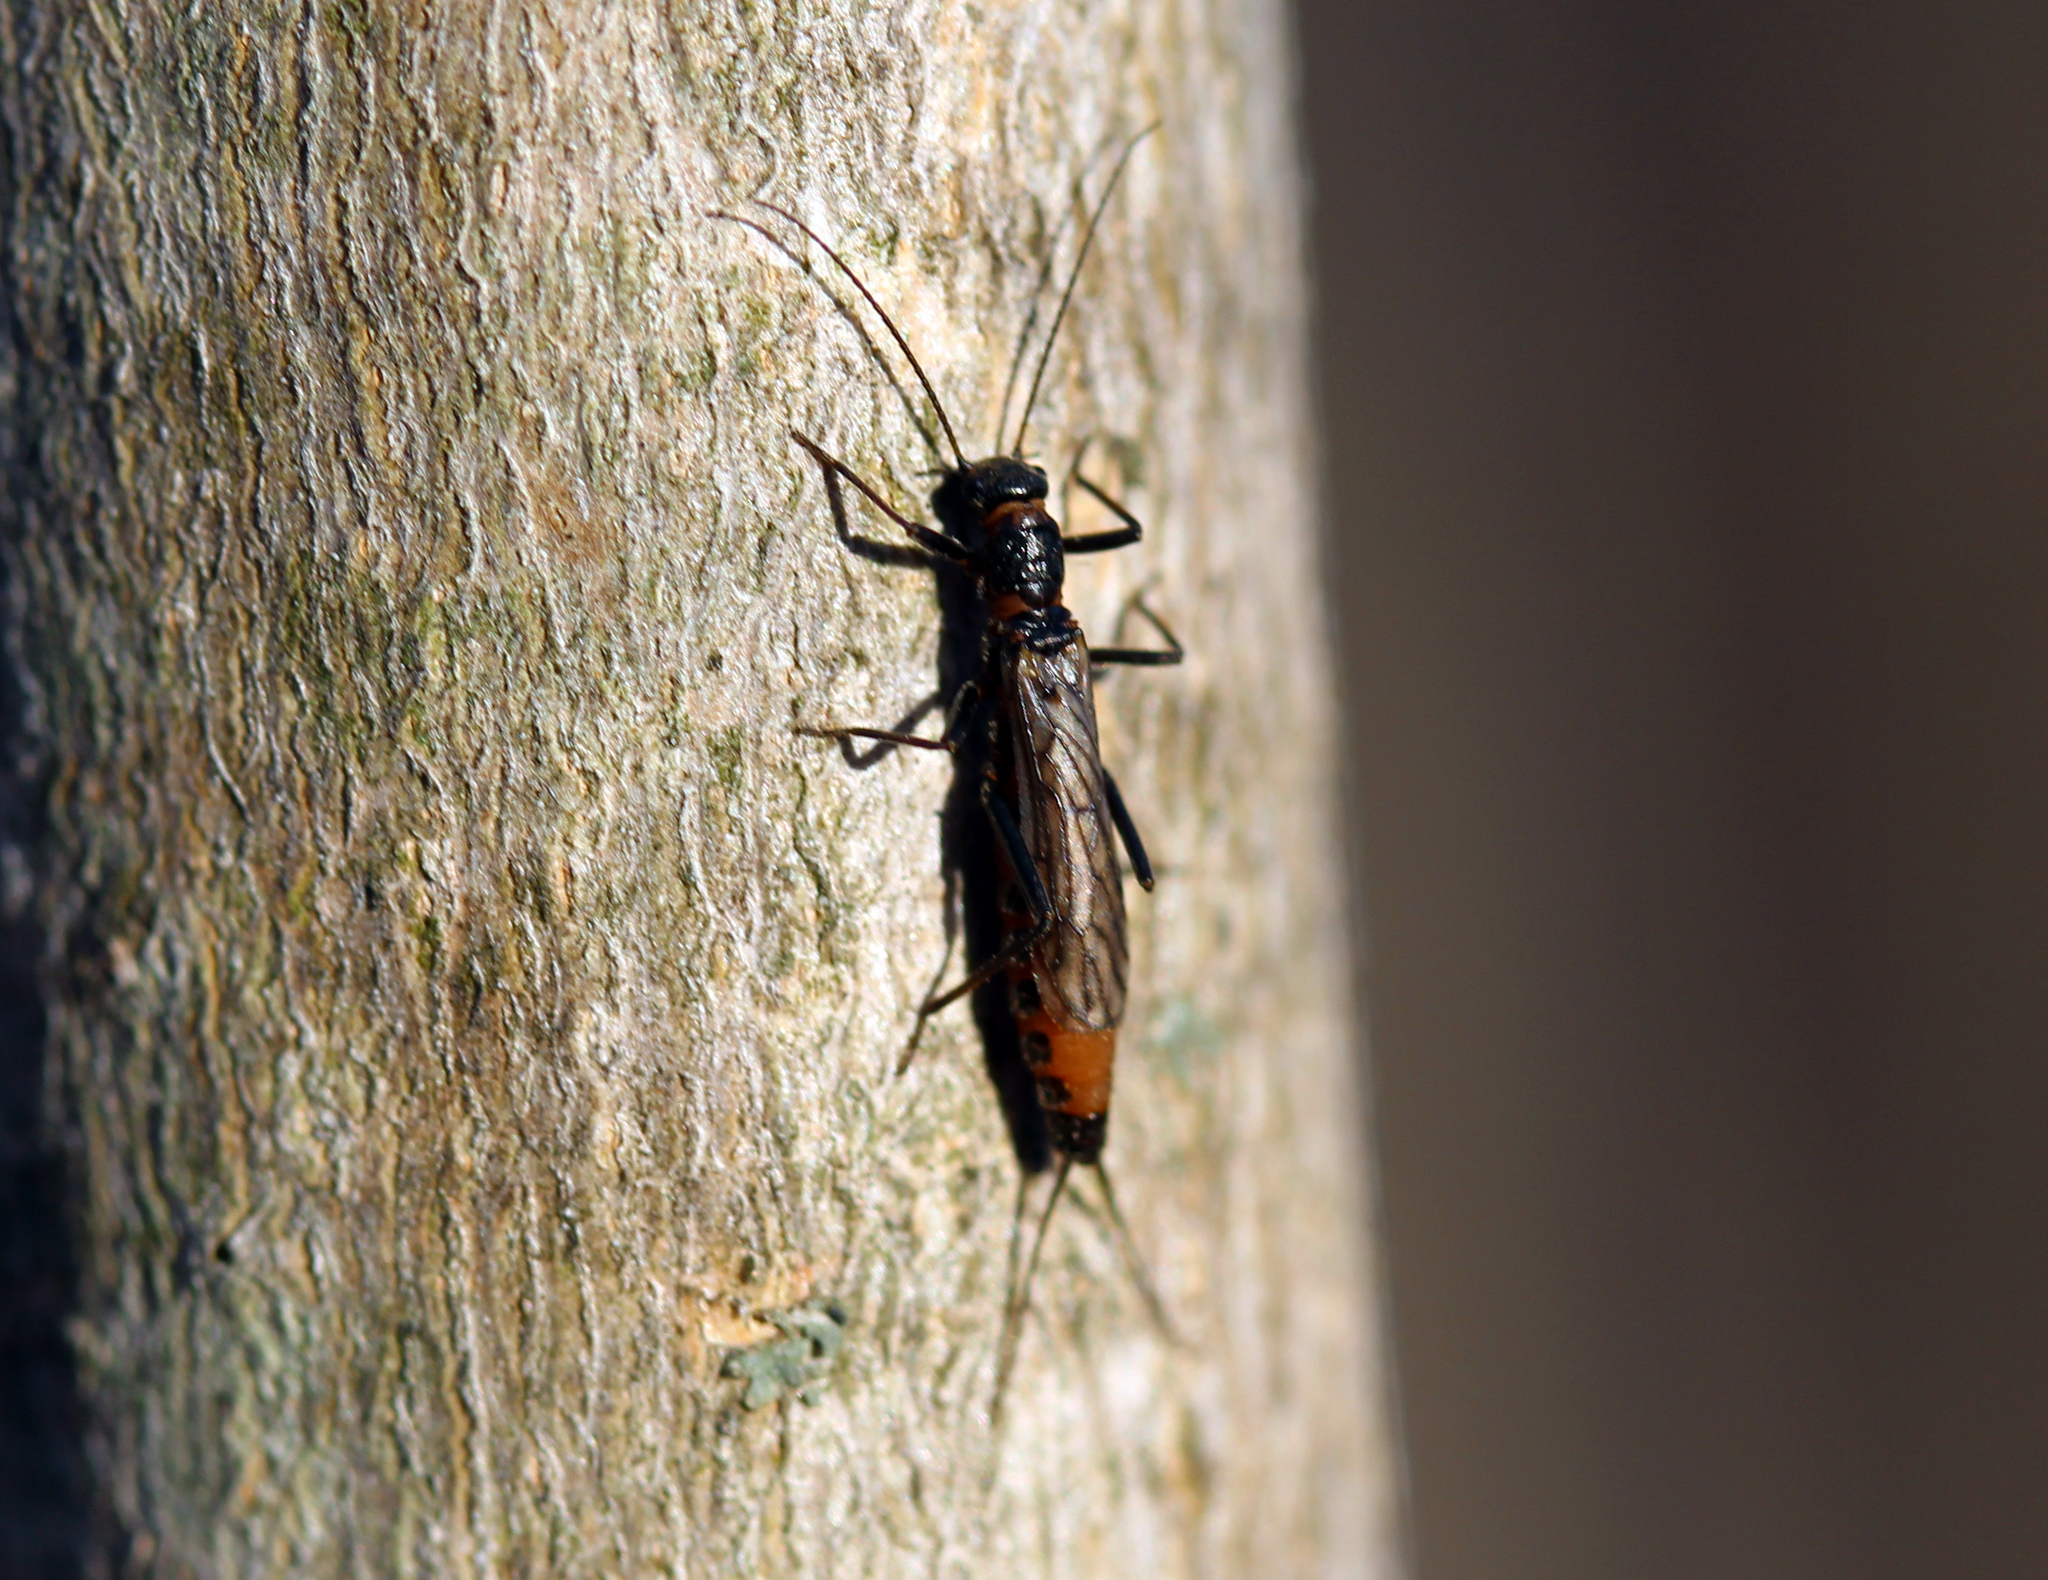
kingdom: Animalia
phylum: Arthropoda
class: Insecta
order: Plecoptera
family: Capniidae
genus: Allocapnia
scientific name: Allocapnia
